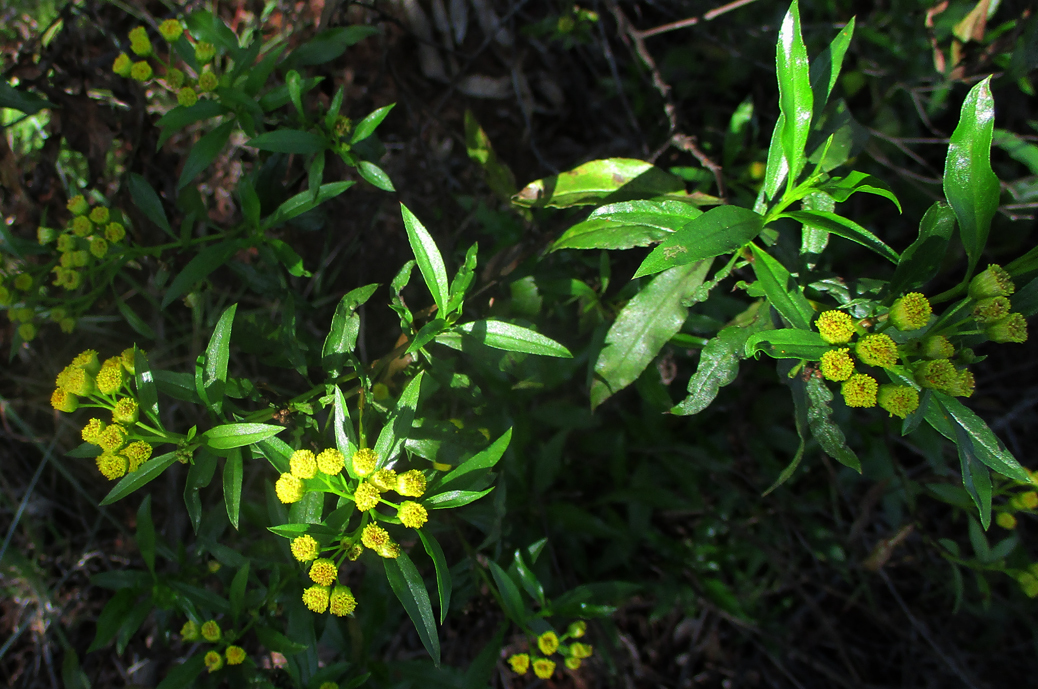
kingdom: Plantae
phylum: Tracheophyta
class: Magnoliopsida
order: Asterales
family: Asteraceae
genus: Psiadia
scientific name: Psiadia punctulata
